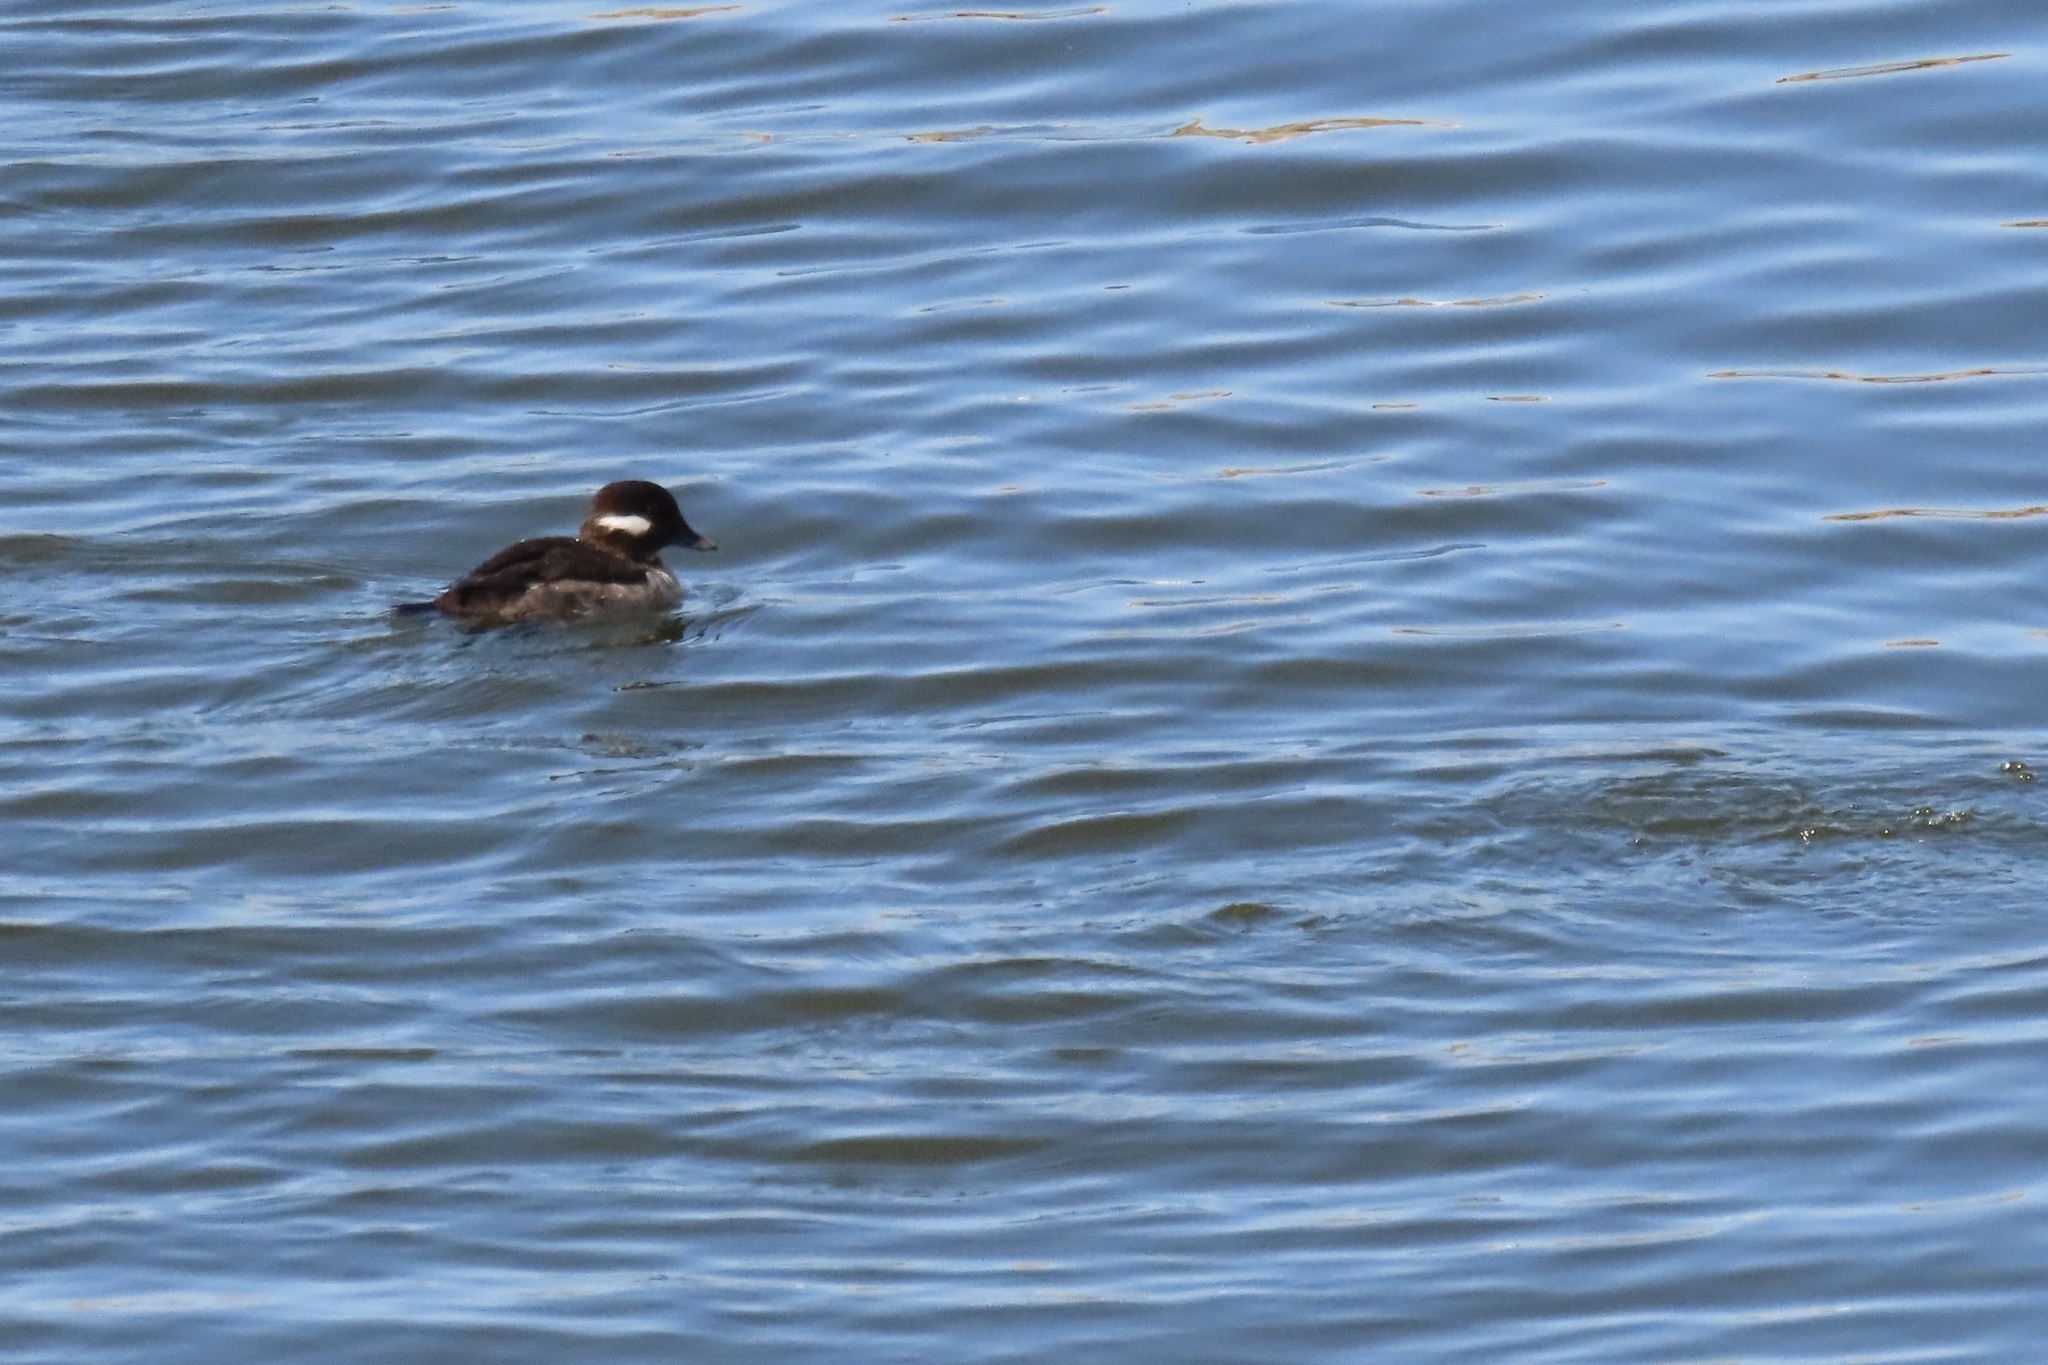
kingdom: Animalia
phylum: Chordata
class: Aves
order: Anseriformes
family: Anatidae
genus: Bucephala
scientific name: Bucephala albeola
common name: Bufflehead
